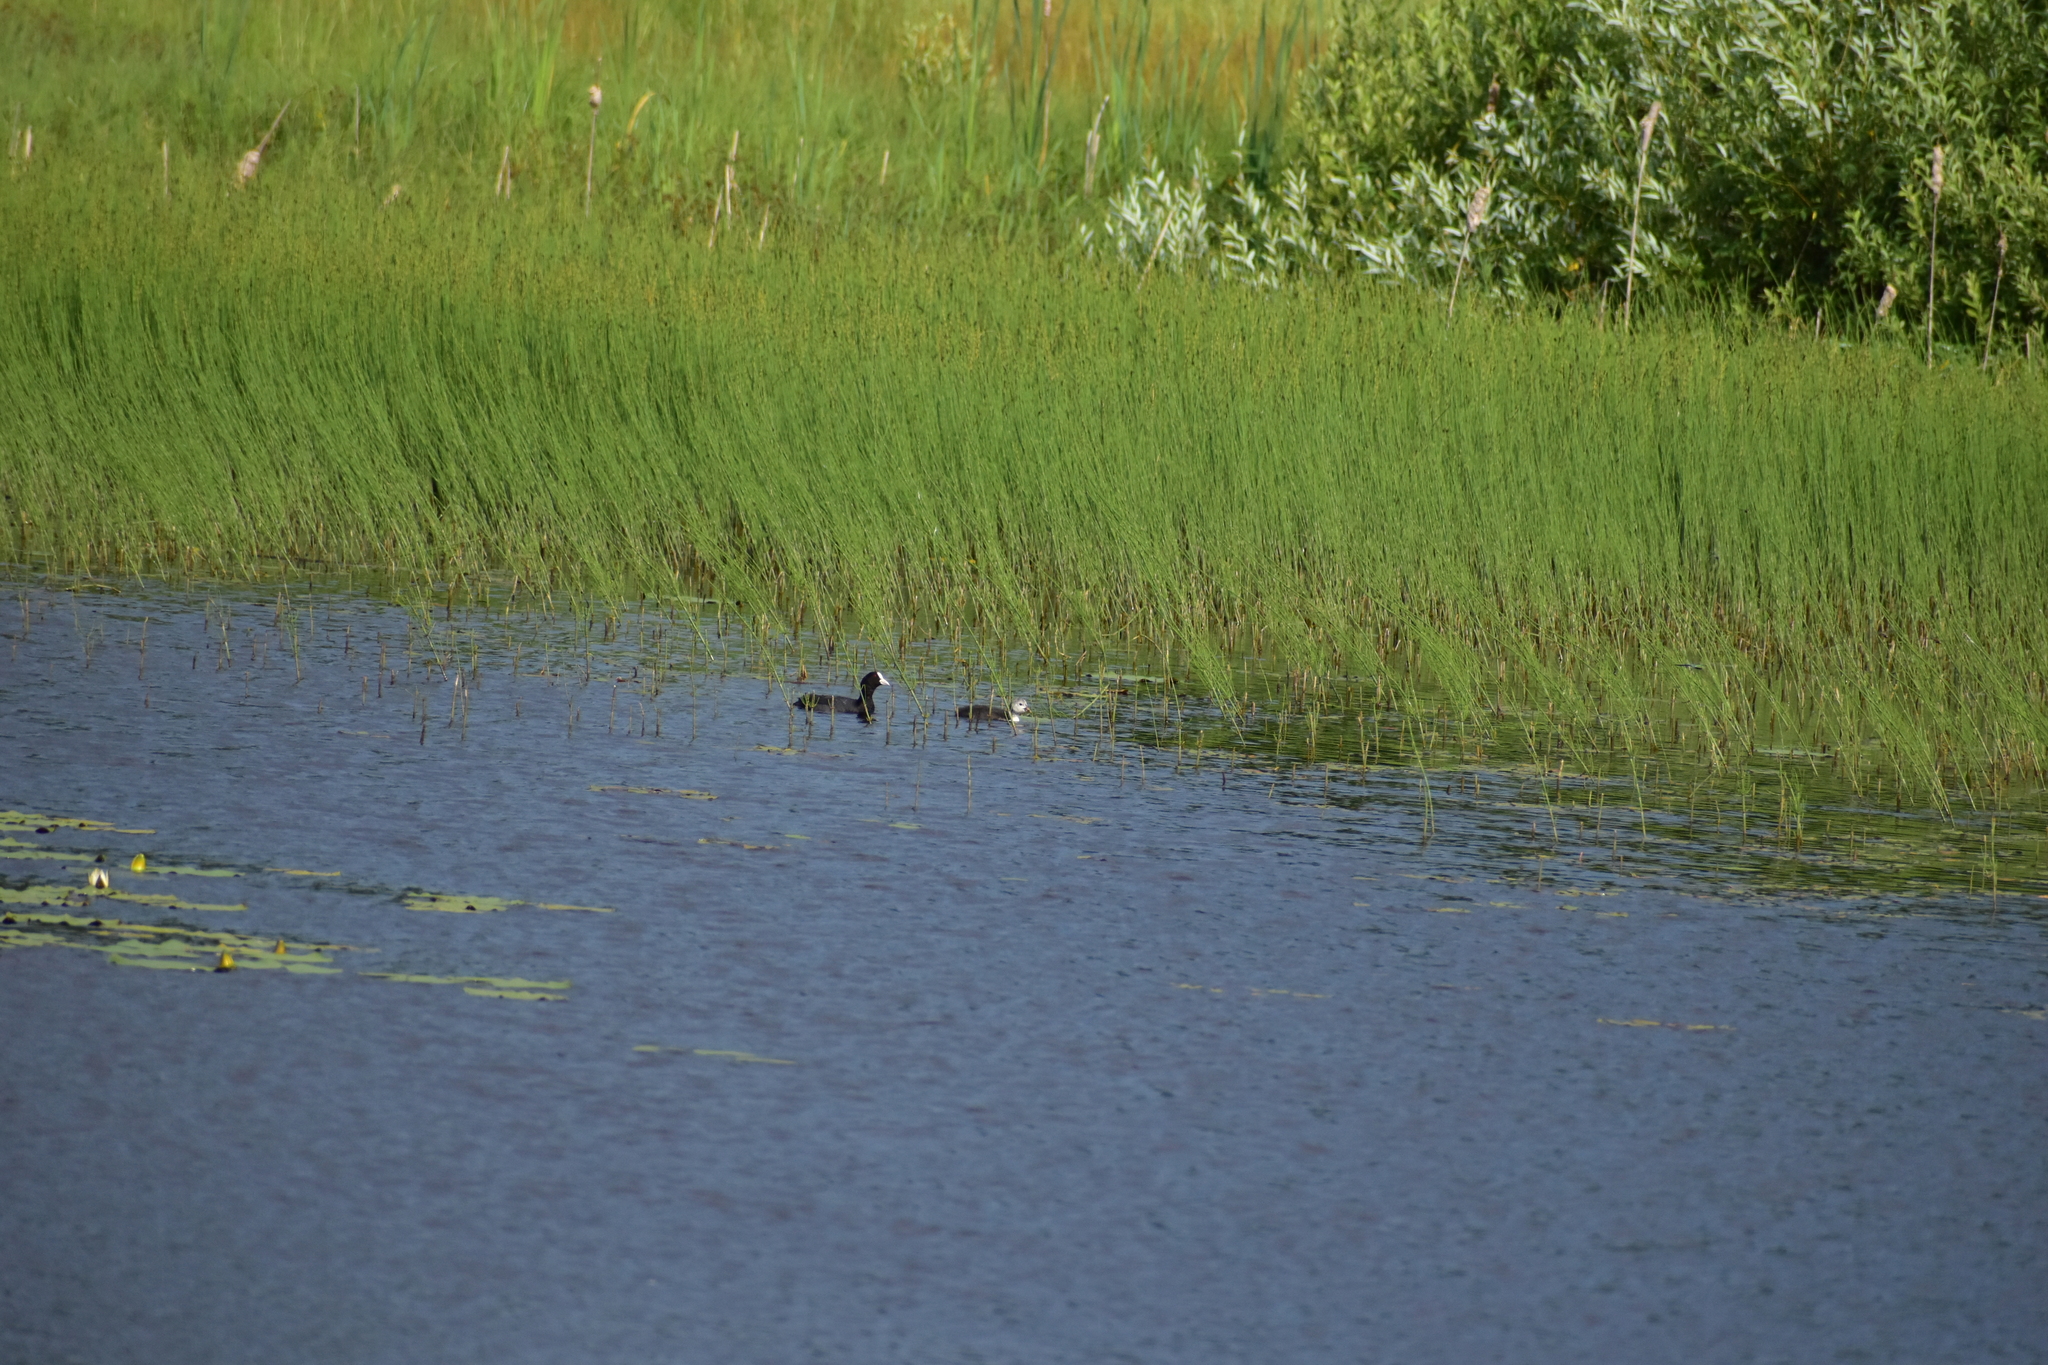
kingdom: Animalia
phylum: Chordata
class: Aves
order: Gruiformes
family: Rallidae
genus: Fulica
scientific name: Fulica atra
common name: Eurasian coot
